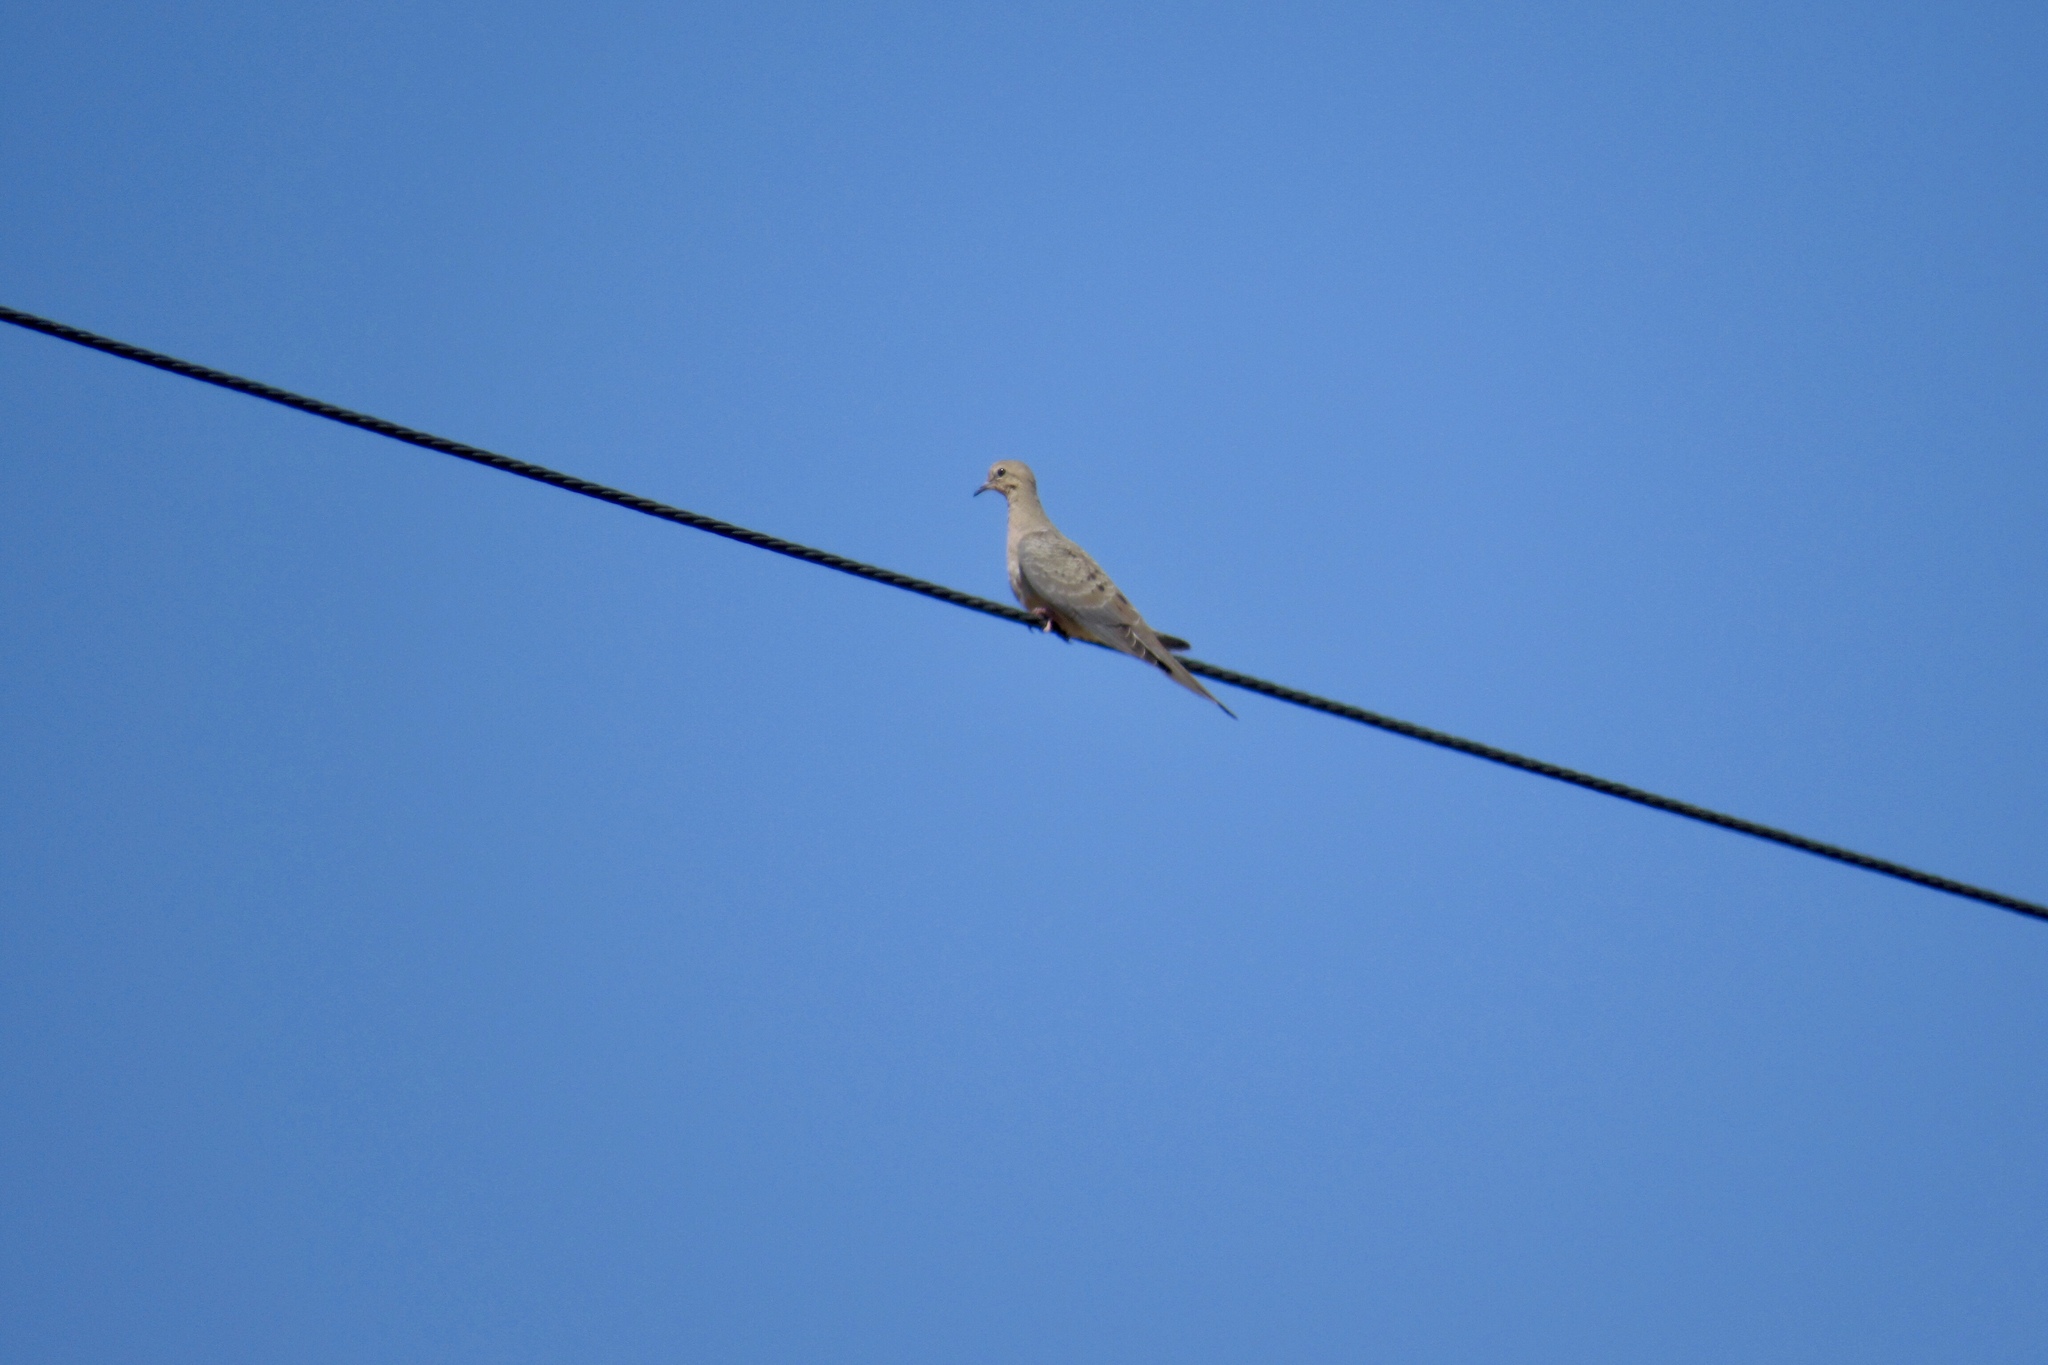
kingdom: Animalia
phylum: Chordata
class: Aves
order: Columbiformes
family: Columbidae
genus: Zenaida
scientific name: Zenaida macroura
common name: Mourning dove
